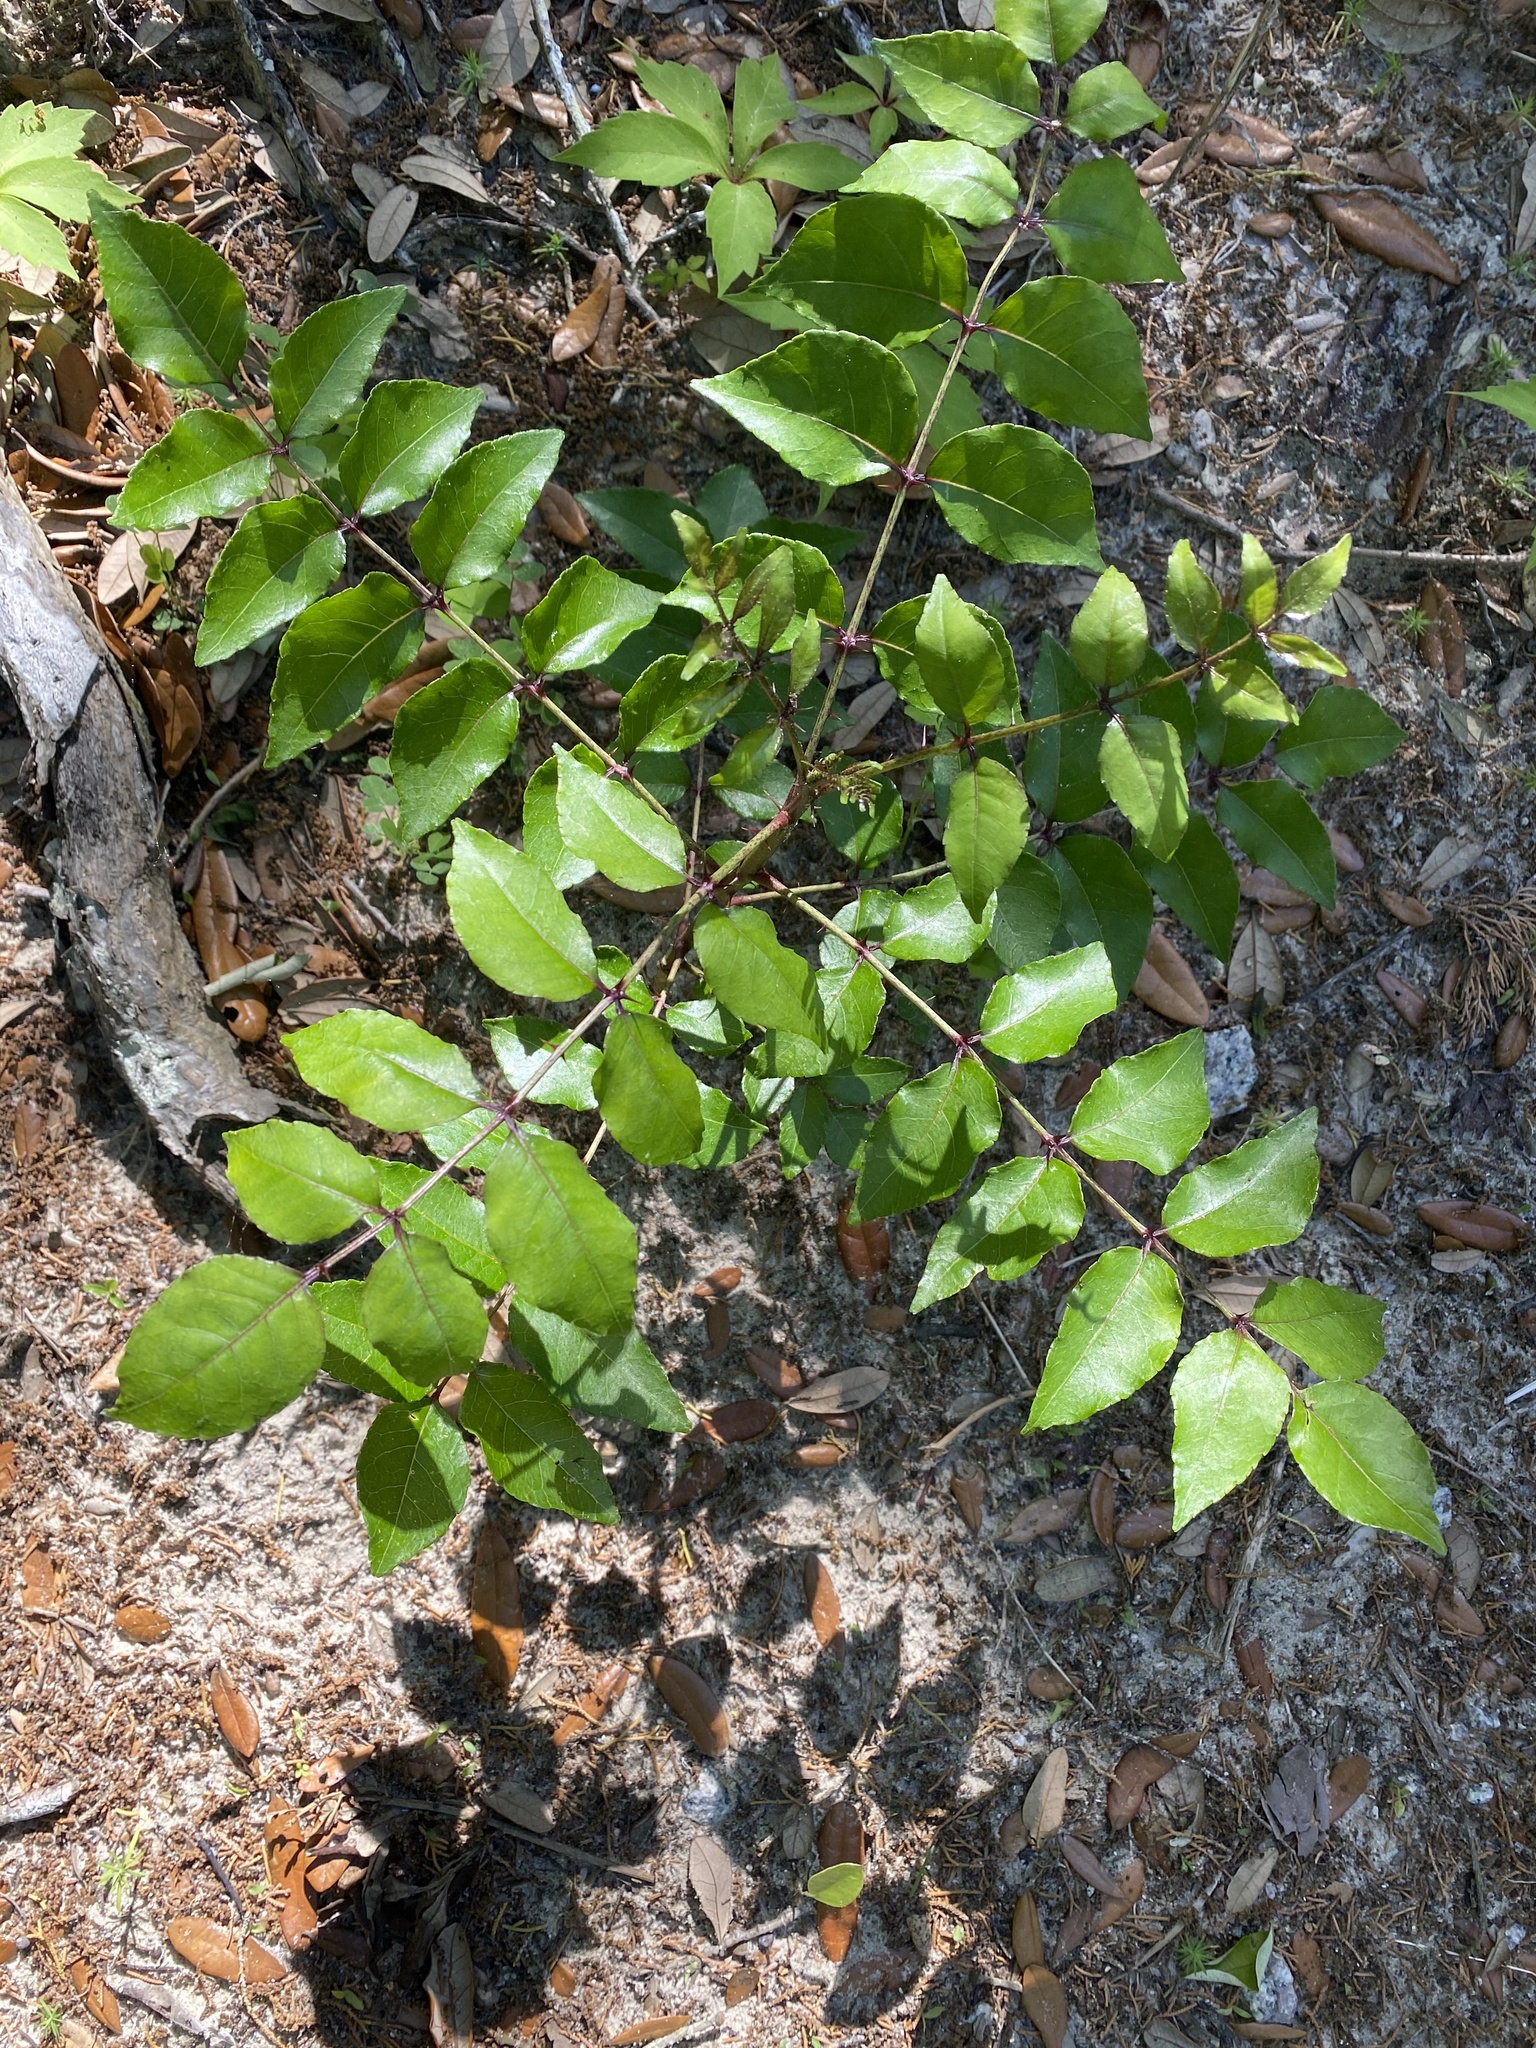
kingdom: Plantae
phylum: Tracheophyta
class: Magnoliopsida
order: Sapindales
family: Rutaceae
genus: Zanthoxylum
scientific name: Zanthoxylum clava-herculis
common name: Hercules'-club
